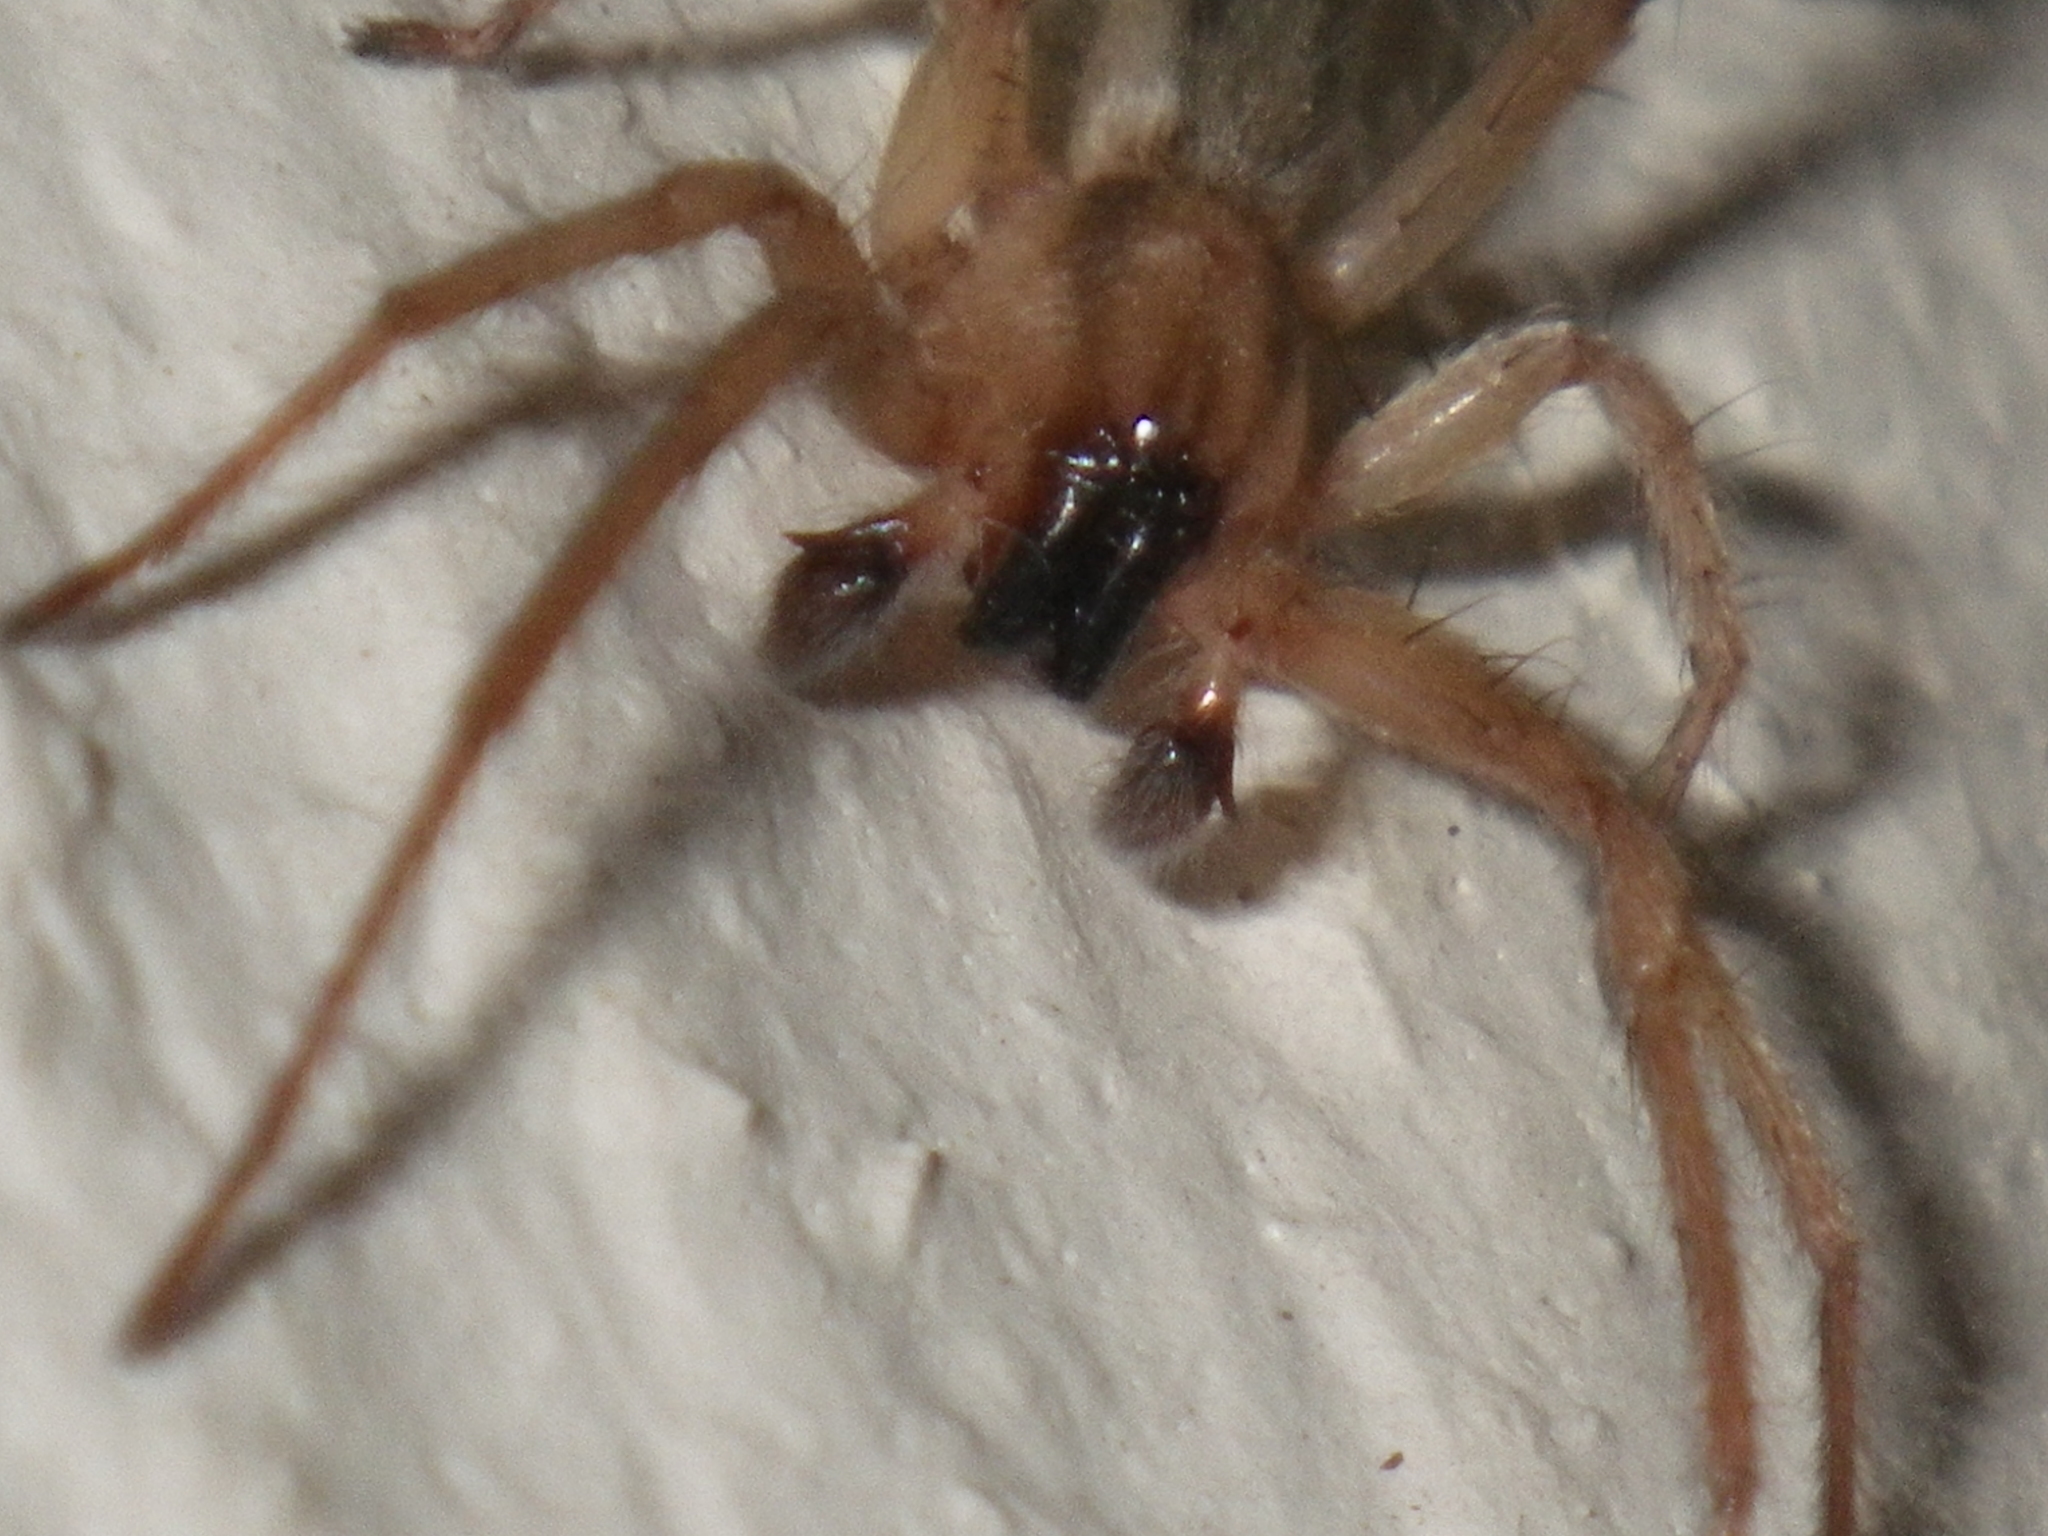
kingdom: Animalia
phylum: Arthropoda
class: Arachnida
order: Araneae
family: Anyphaenidae
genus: Hibana
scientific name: Hibana incursa
